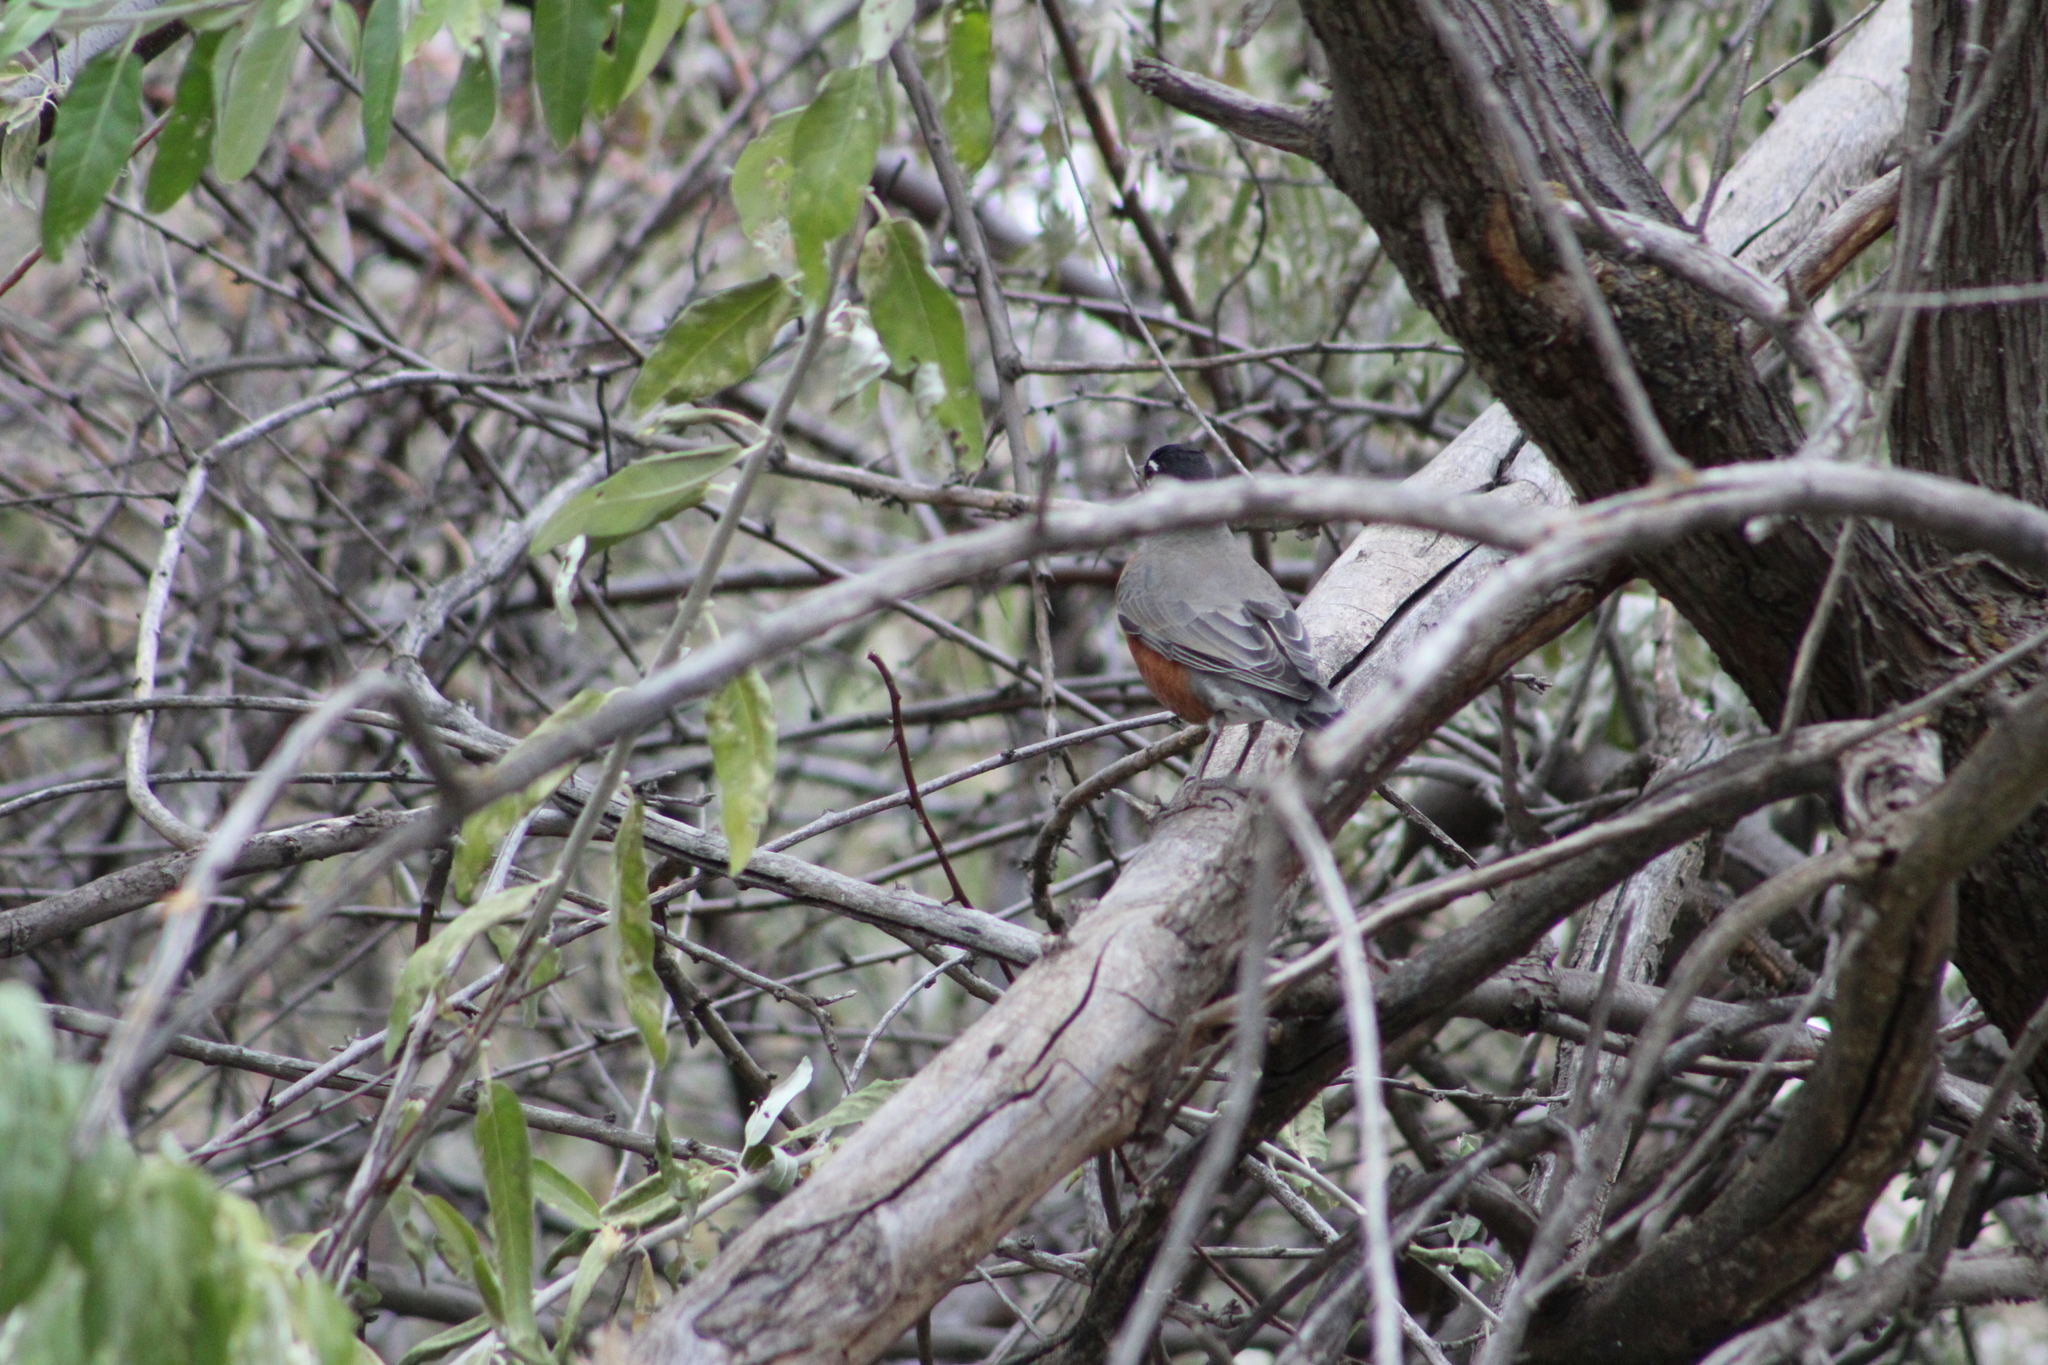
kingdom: Animalia
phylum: Chordata
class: Aves
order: Passeriformes
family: Turdidae
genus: Turdus
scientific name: Turdus migratorius
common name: American robin
